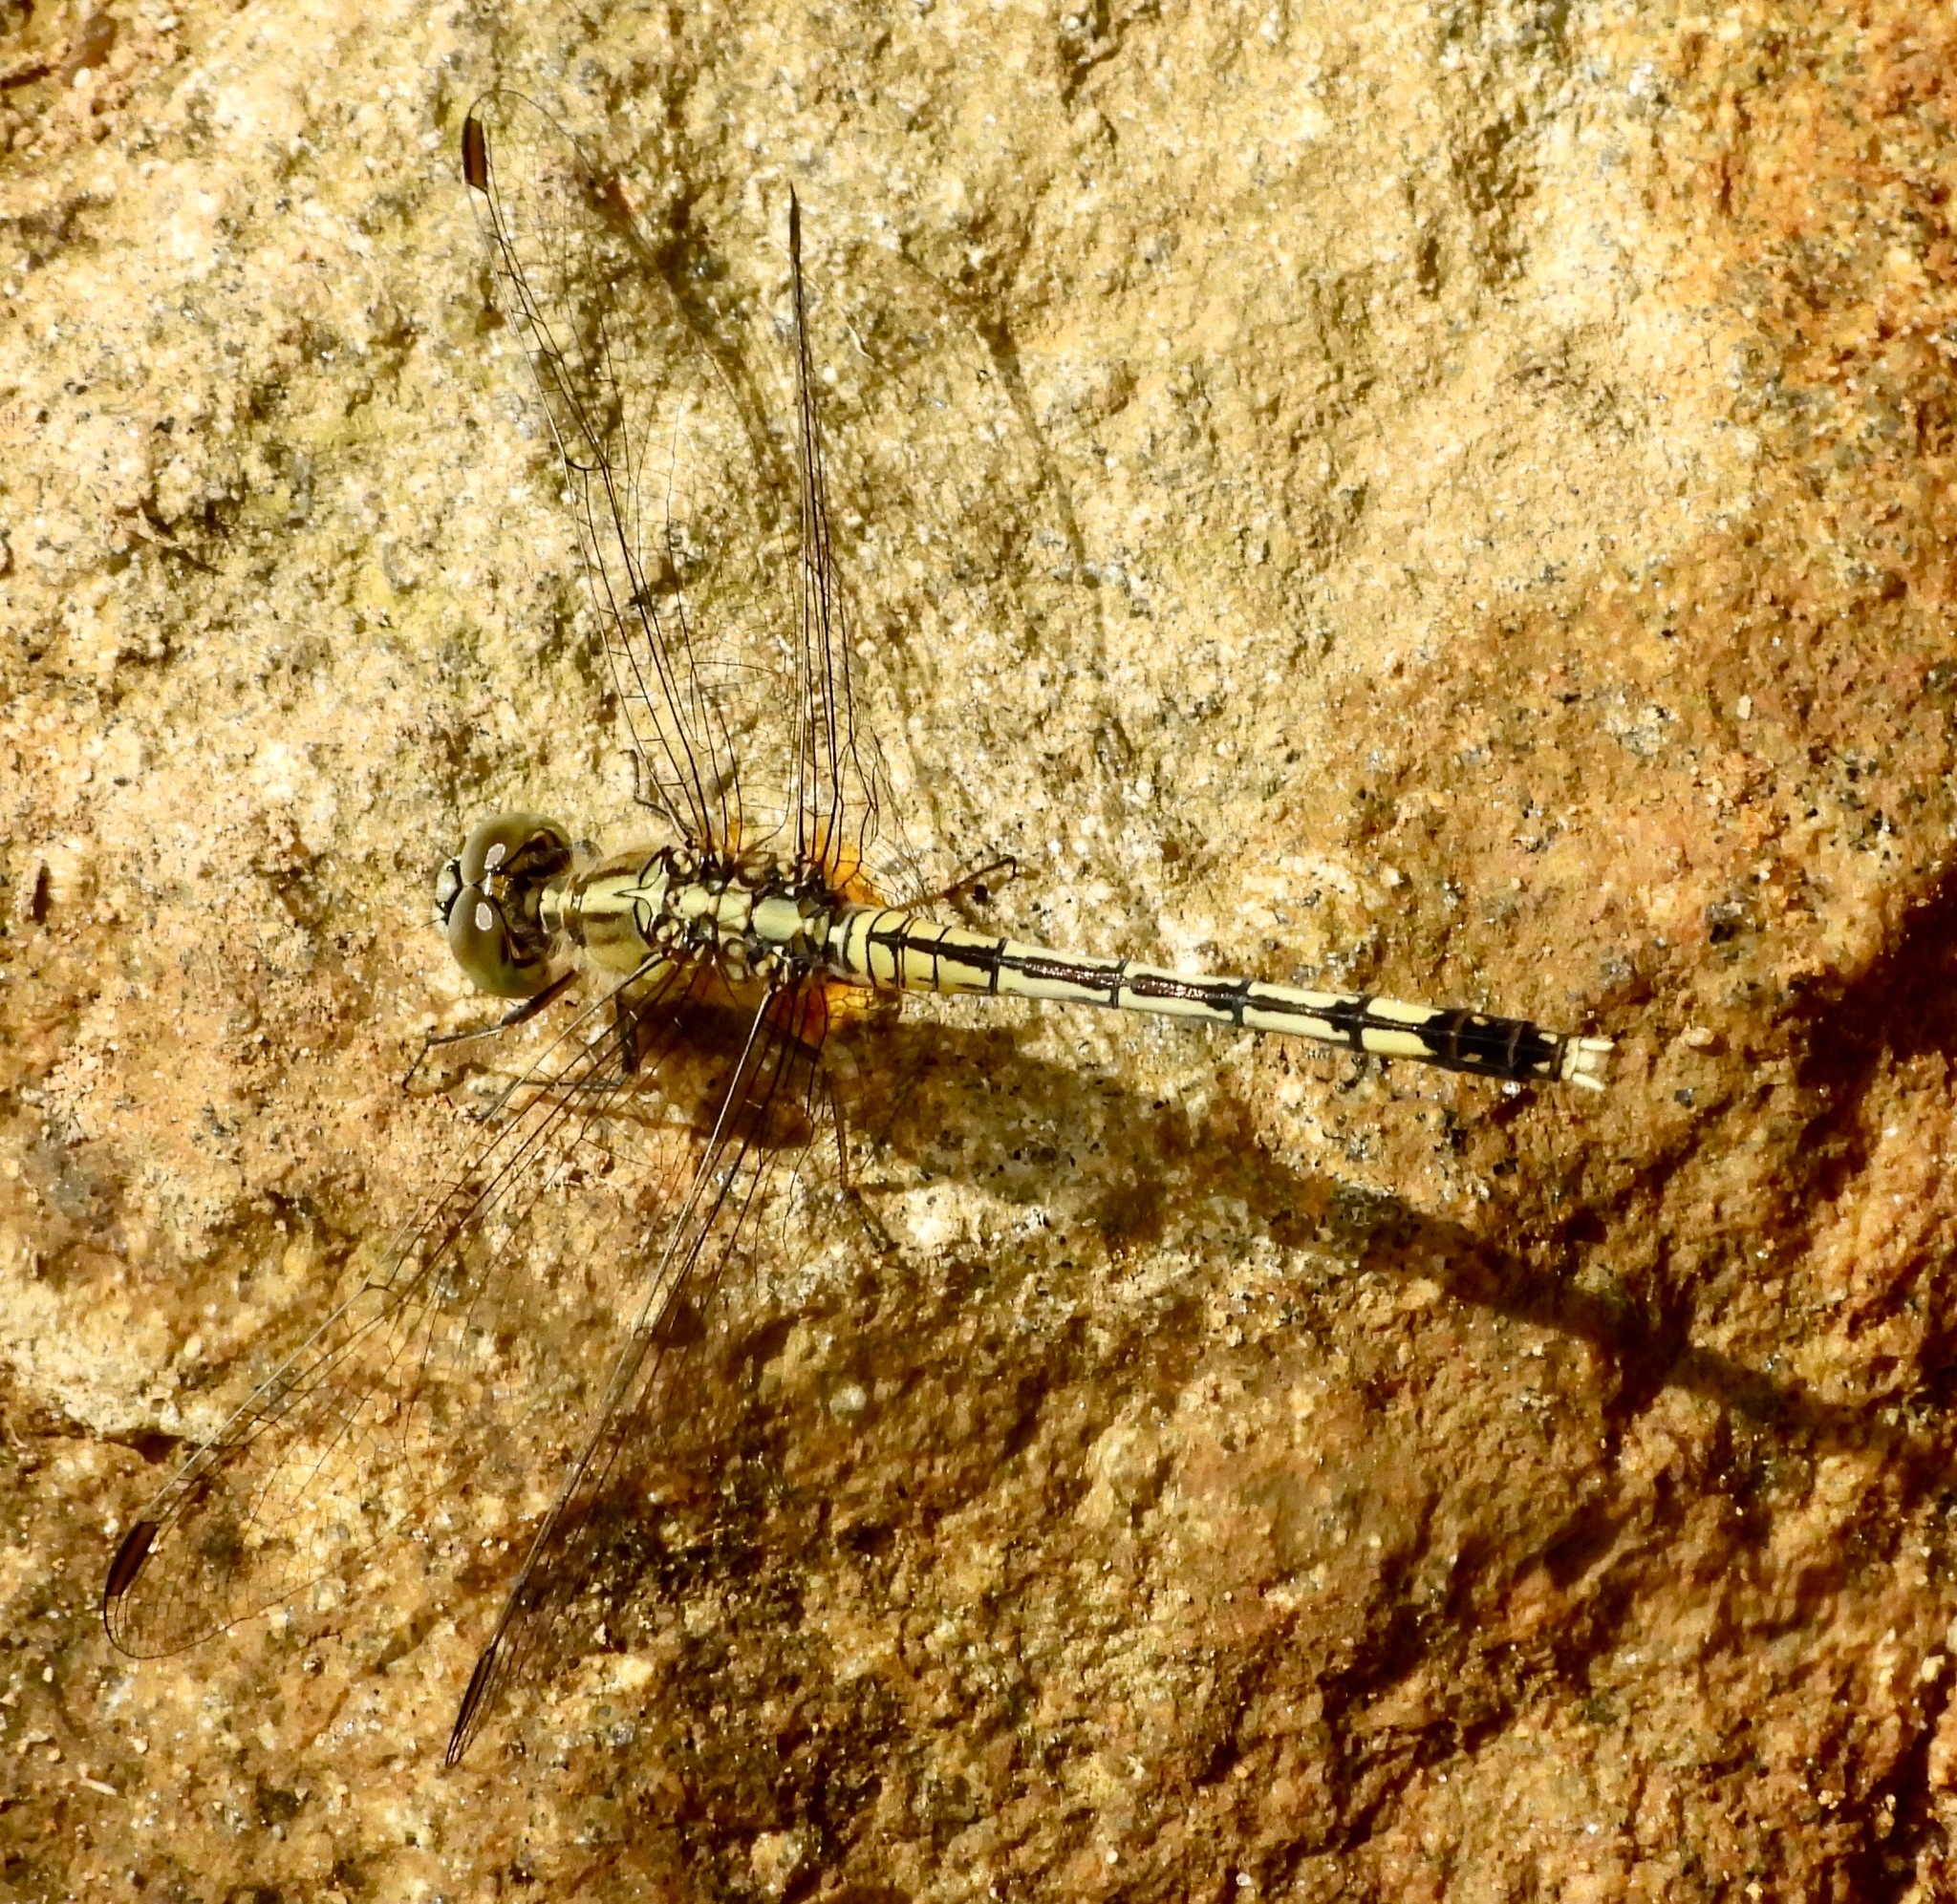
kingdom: Animalia
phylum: Arthropoda
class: Insecta
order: Odonata
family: Libellulidae
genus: Diplacodes
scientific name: Diplacodes trivialis
